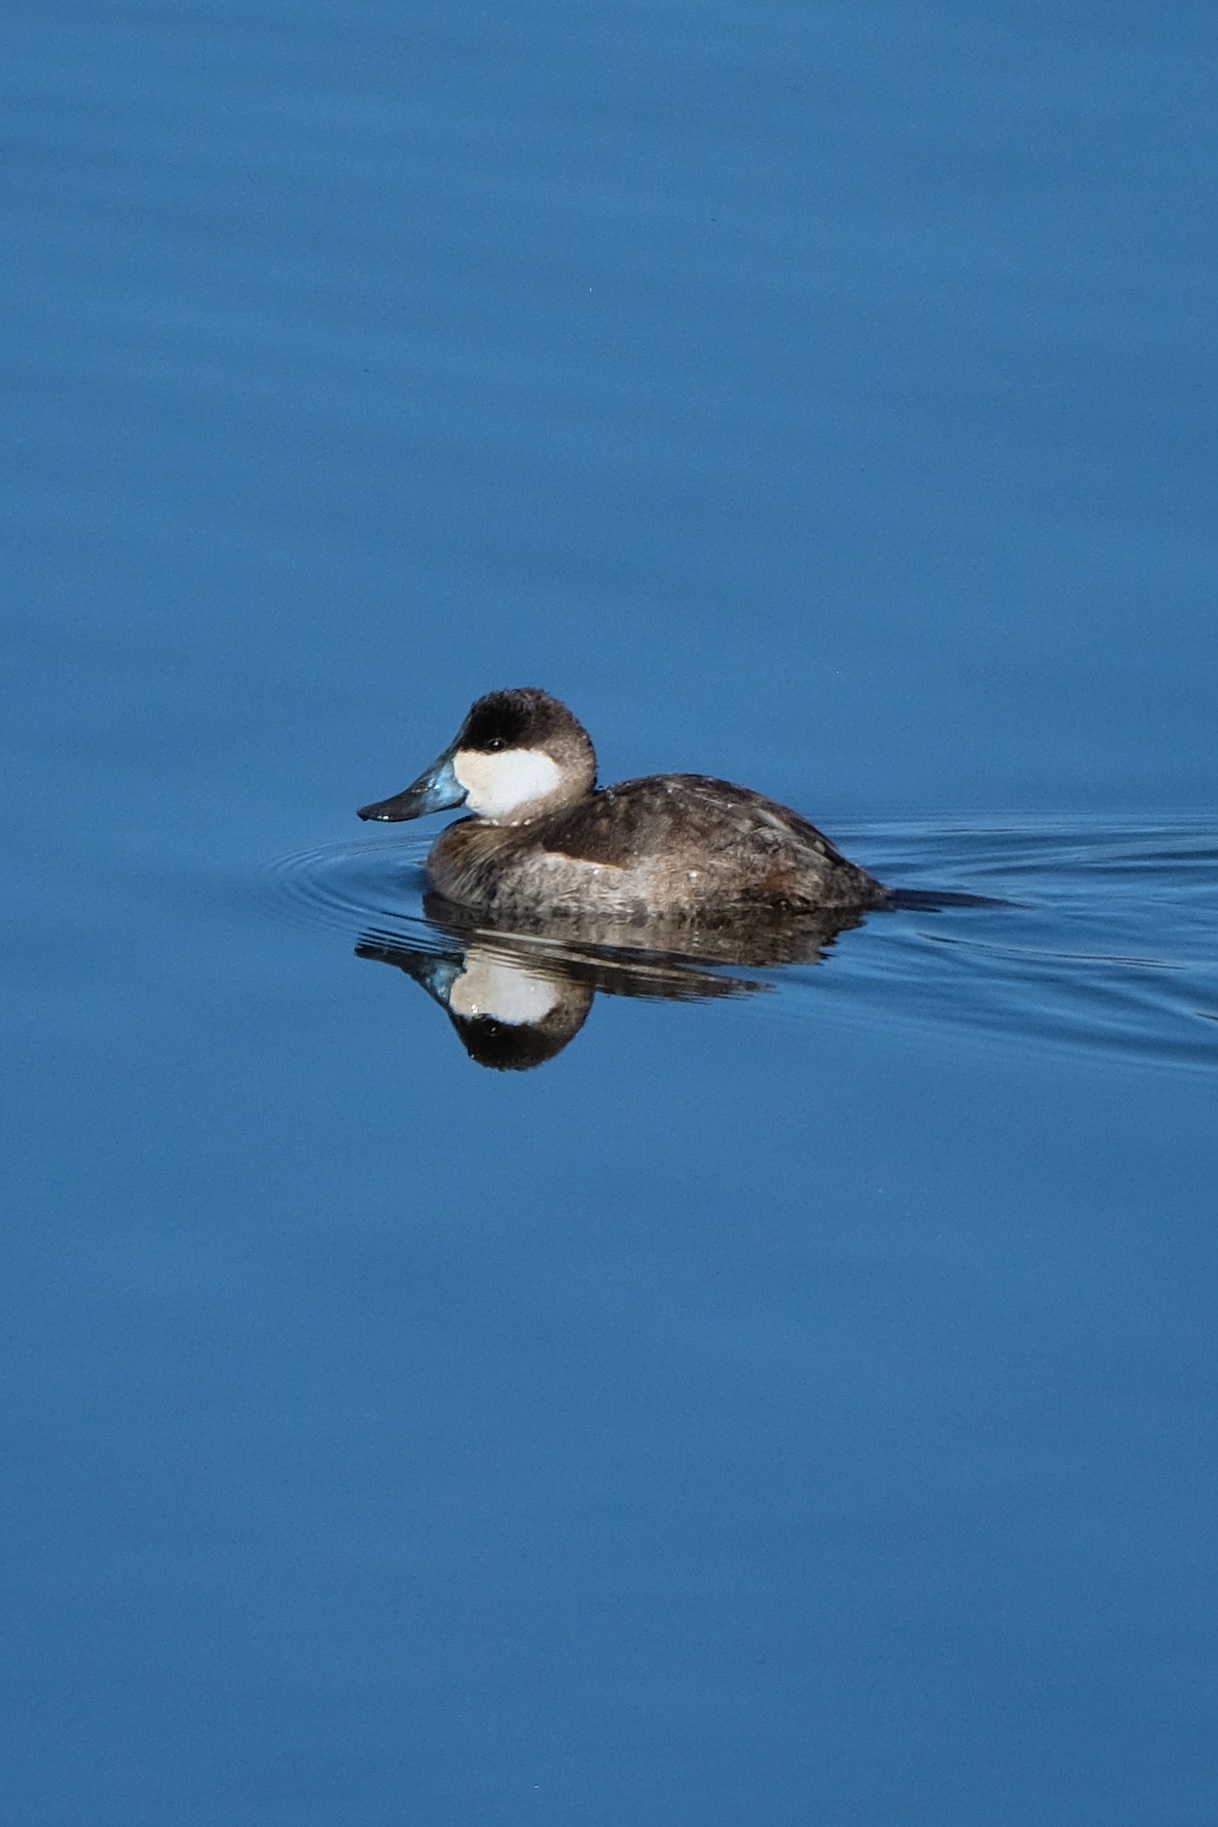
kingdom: Animalia
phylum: Chordata
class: Aves
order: Anseriformes
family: Anatidae
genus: Oxyura
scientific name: Oxyura jamaicensis
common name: Ruddy duck
